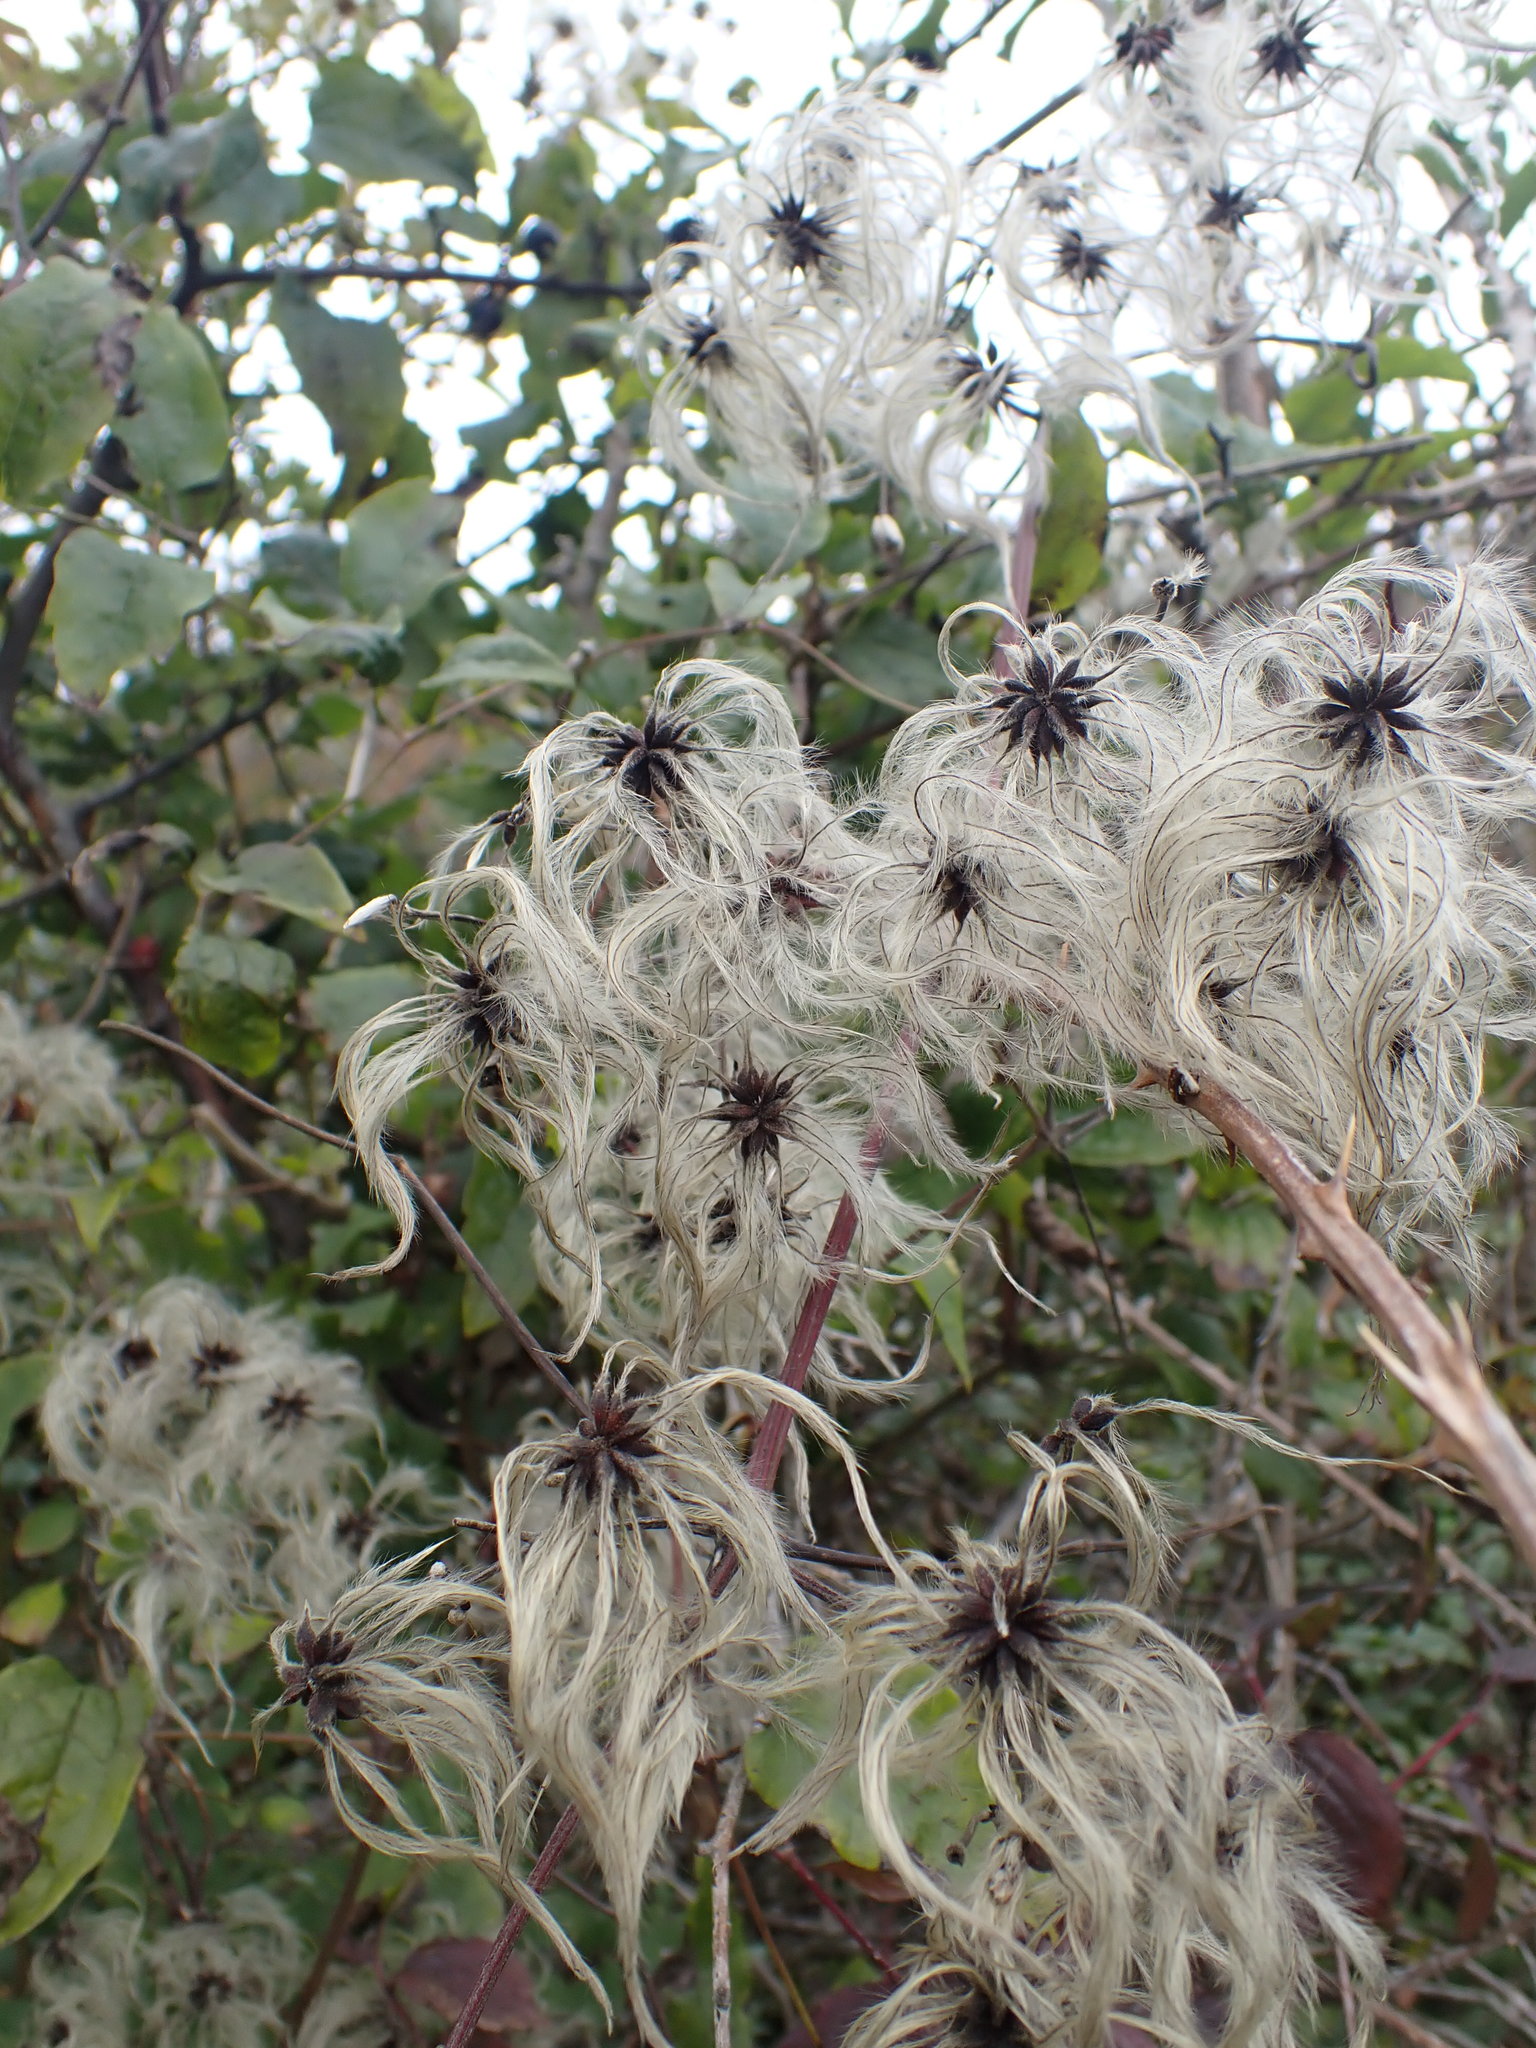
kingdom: Plantae
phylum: Tracheophyta
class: Magnoliopsida
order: Ranunculales
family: Ranunculaceae
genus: Clematis
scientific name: Clematis vitalba
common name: Evergreen clematis
